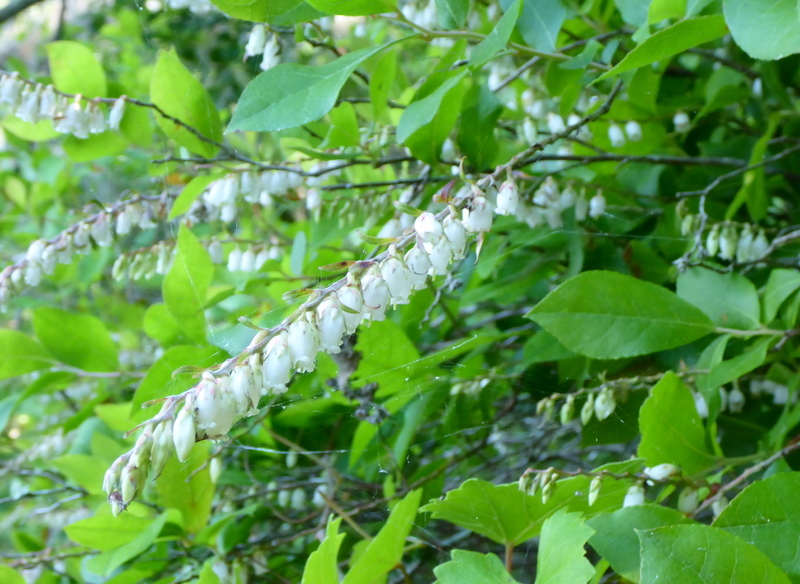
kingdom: Plantae
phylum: Tracheophyta
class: Magnoliopsida
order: Ericales
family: Ericaceae
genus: Eubotrys
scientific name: Eubotrys racemosa
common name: Fetterbush
